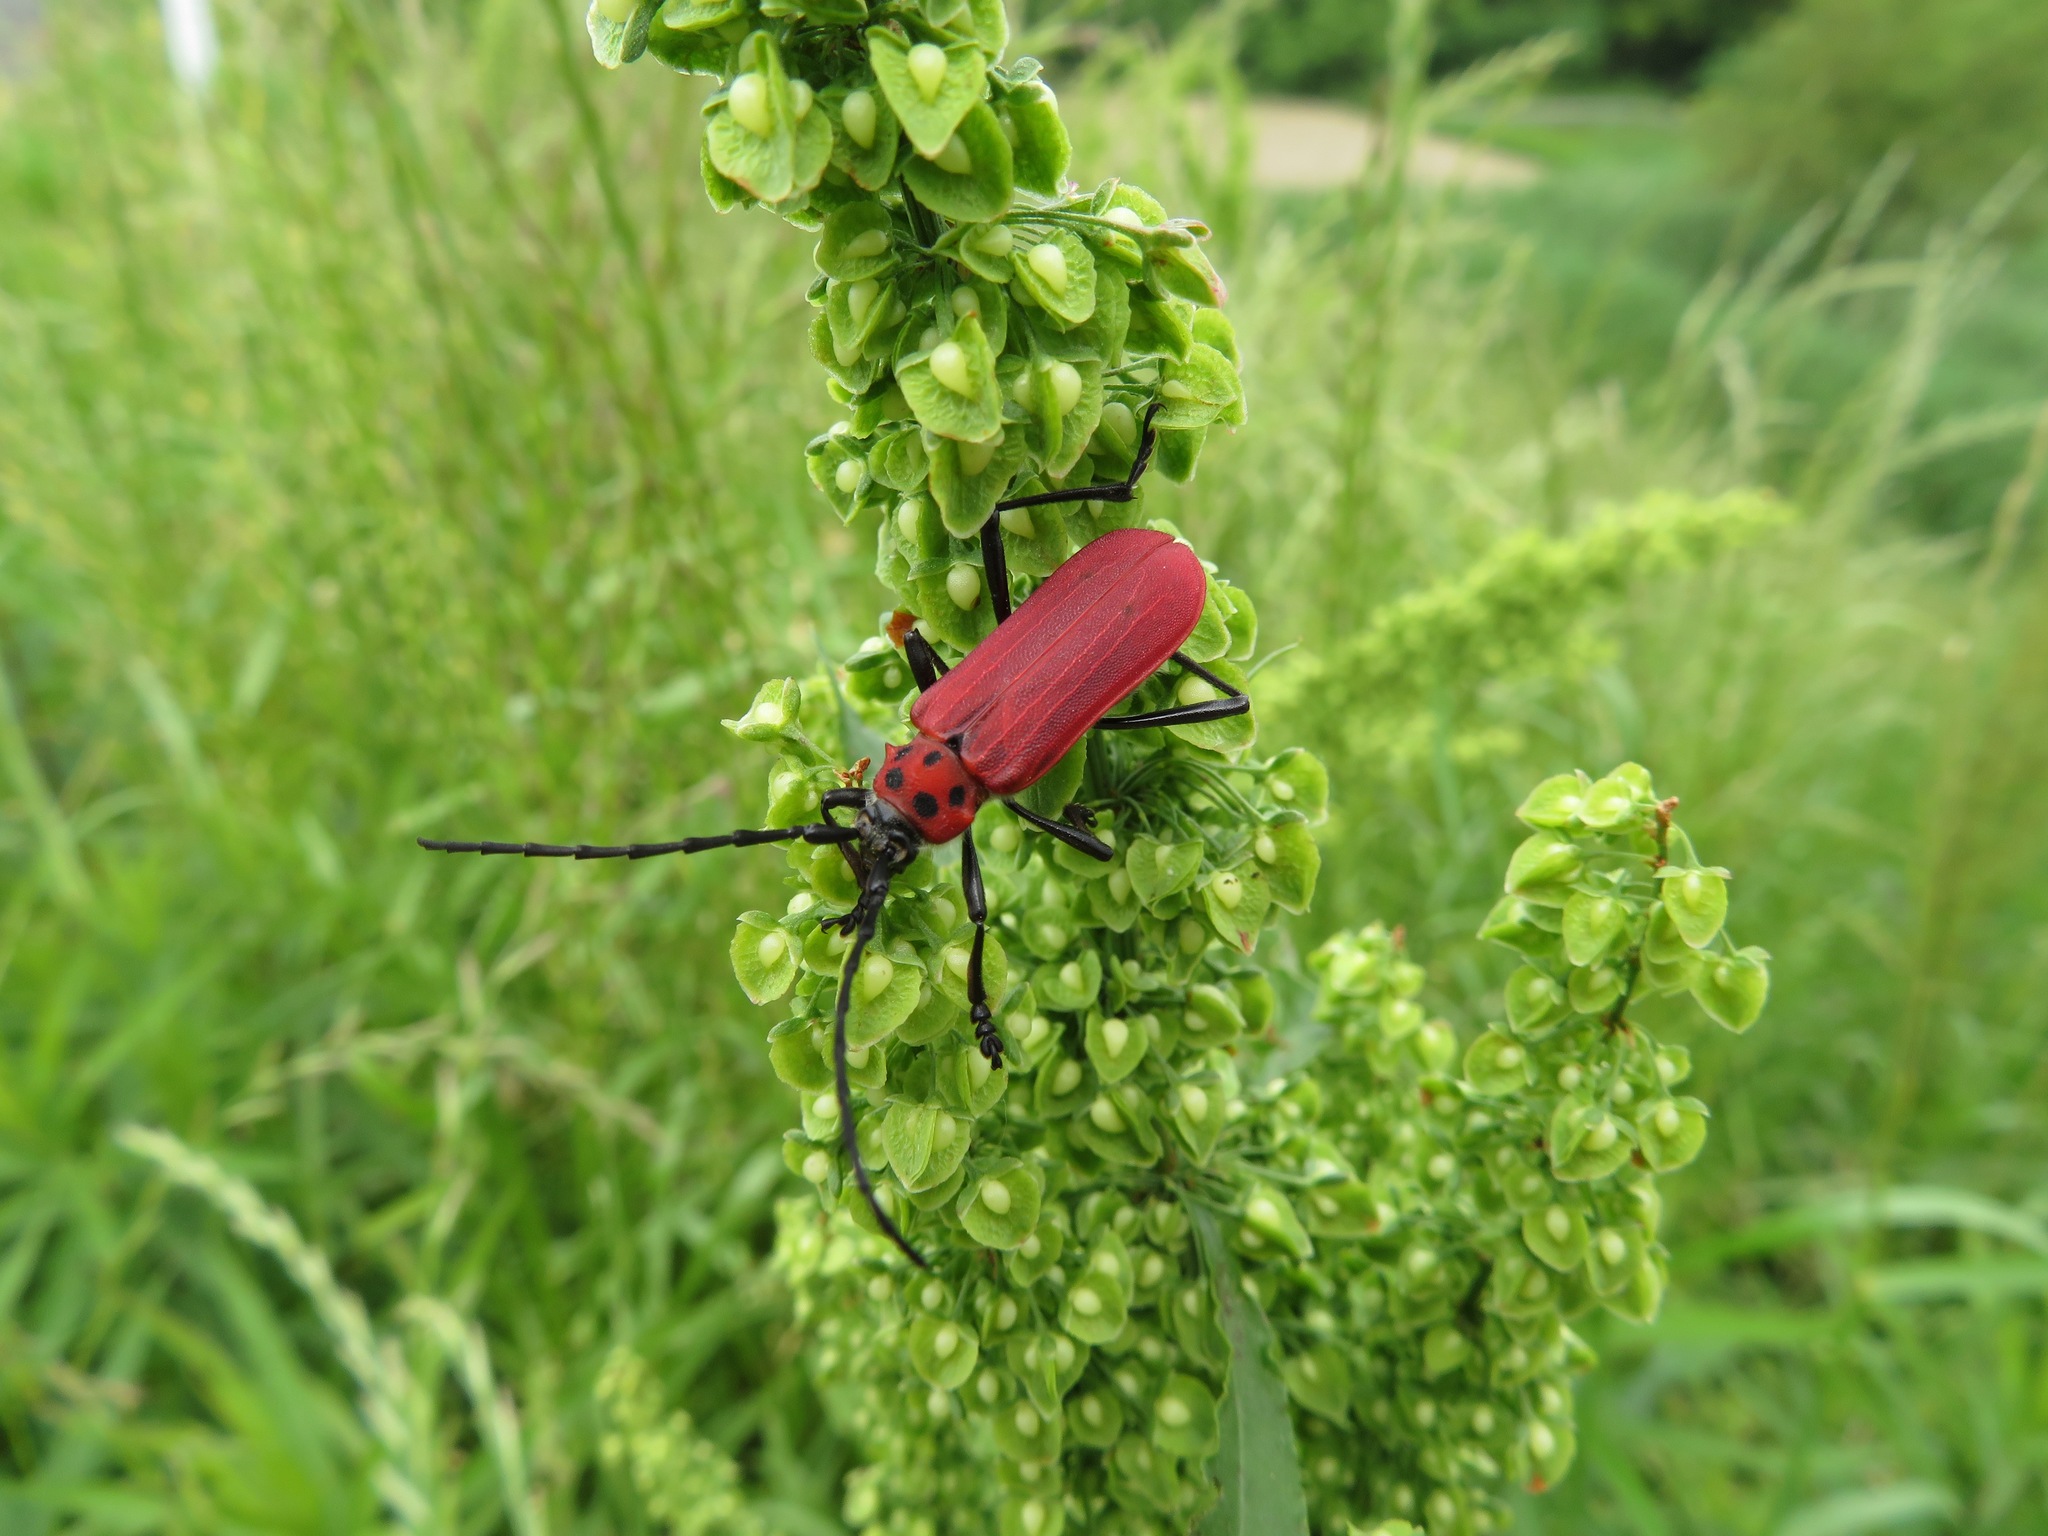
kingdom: Animalia
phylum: Arthropoda
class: Insecta
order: Coleoptera
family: Cerambycidae
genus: Purpuricenus
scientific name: Purpuricenus temminckii
